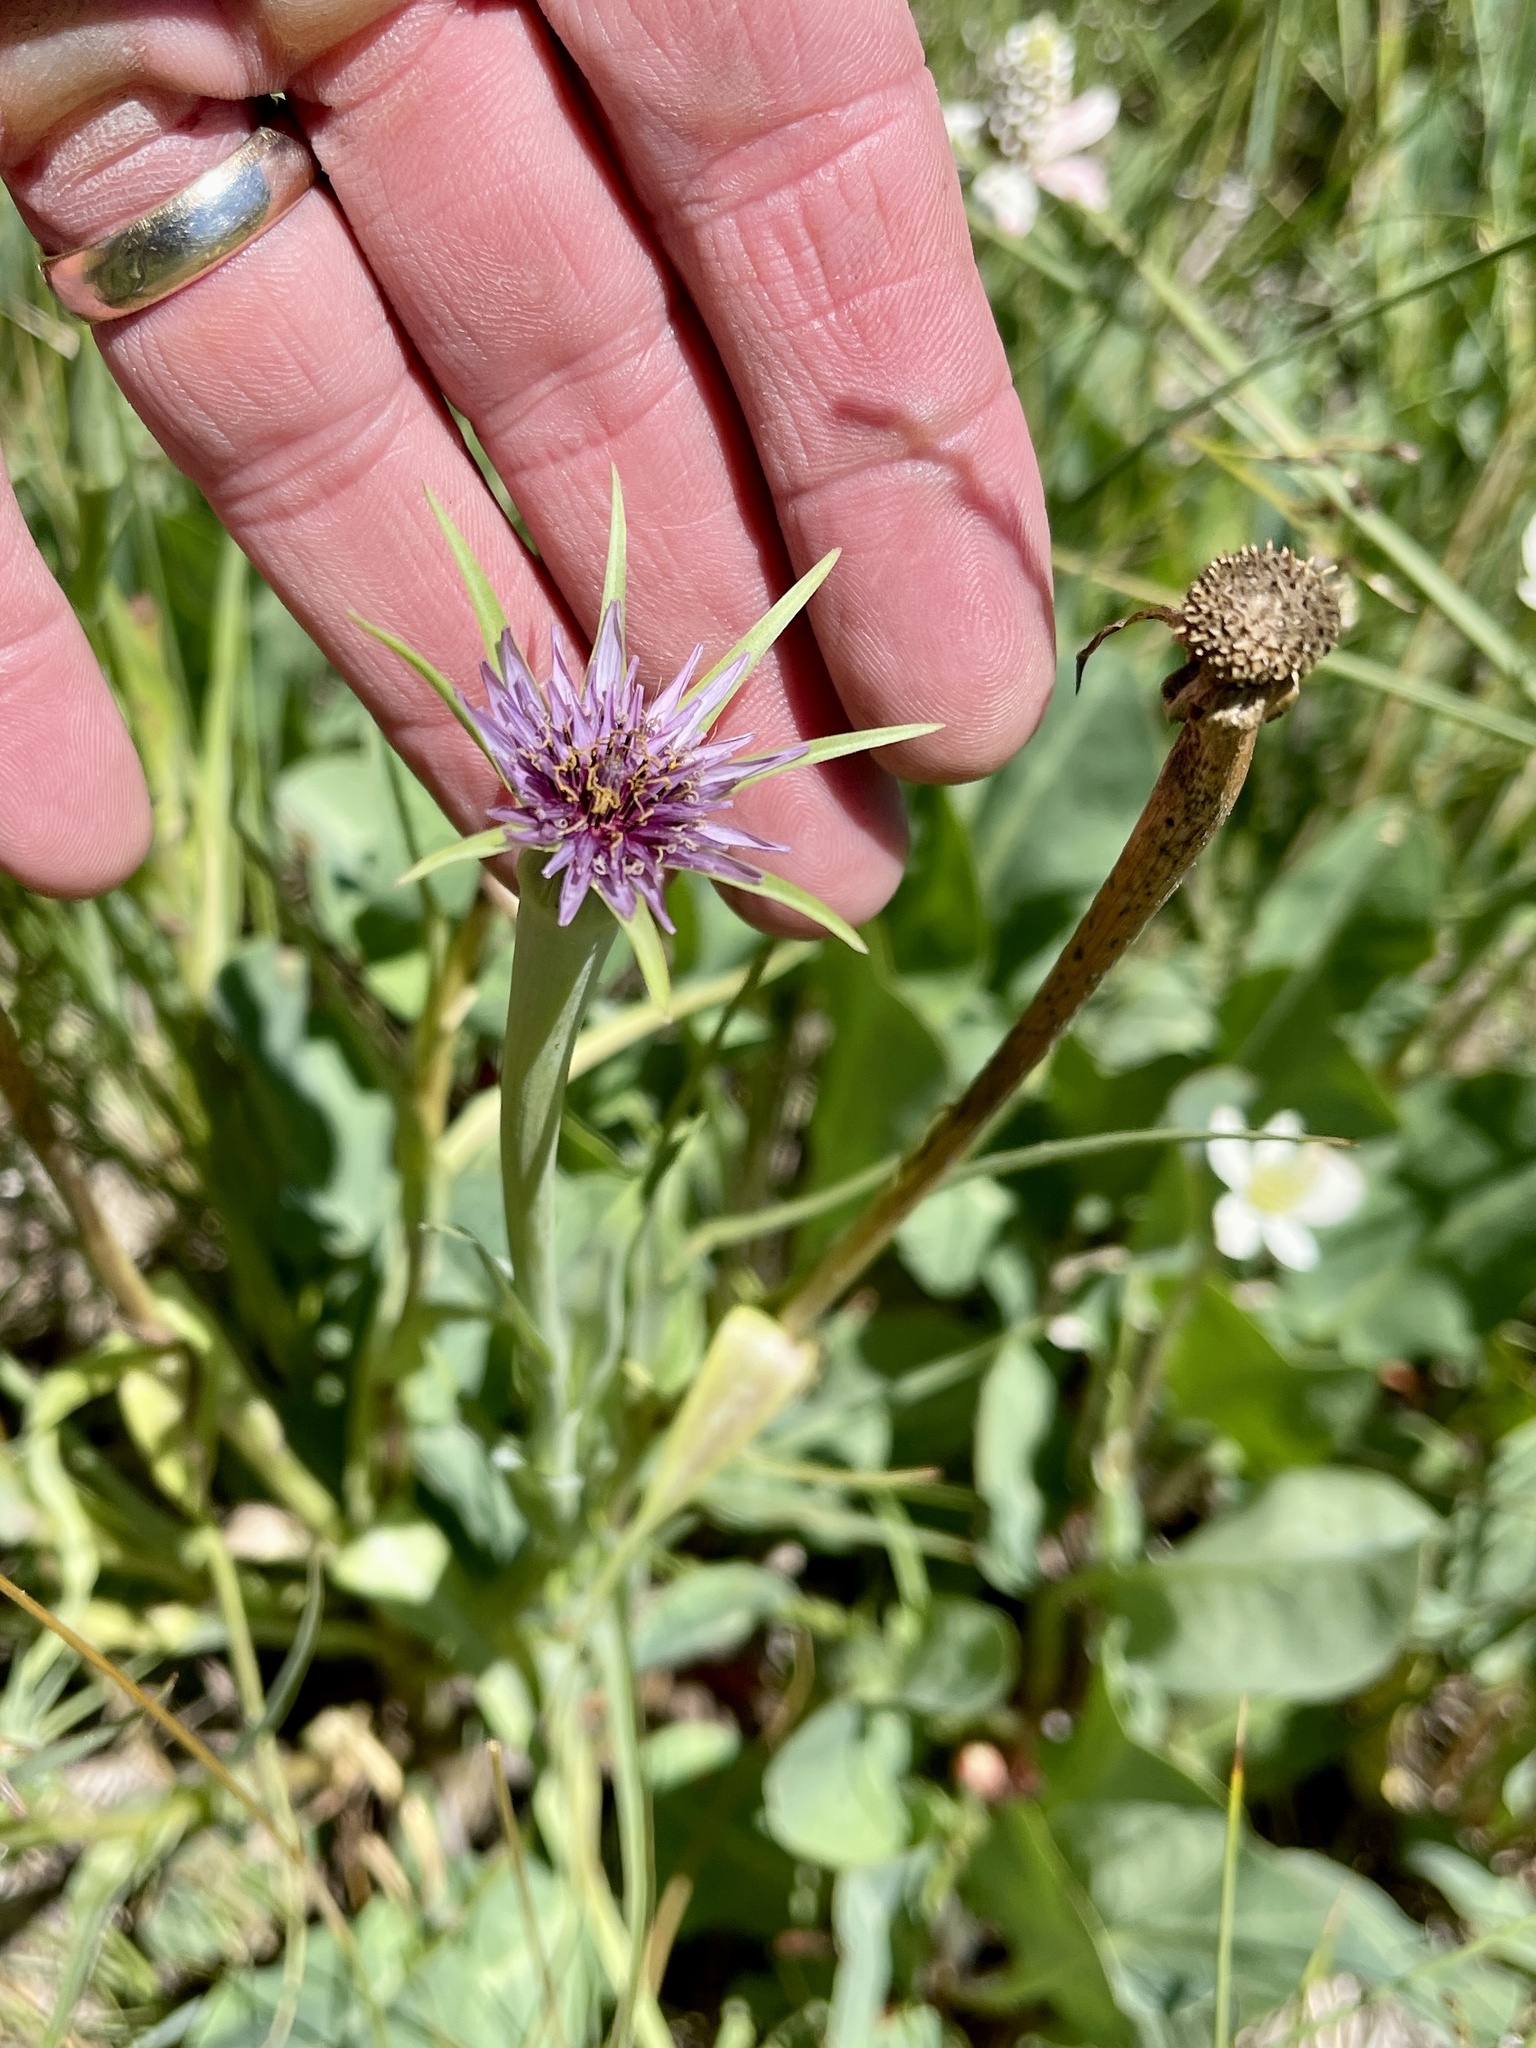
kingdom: Plantae
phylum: Tracheophyta
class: Magnoliopsida
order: Asterales
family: Asteraceae
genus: Tragopogon
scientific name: Tragopogon porrifolius
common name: Salsify
